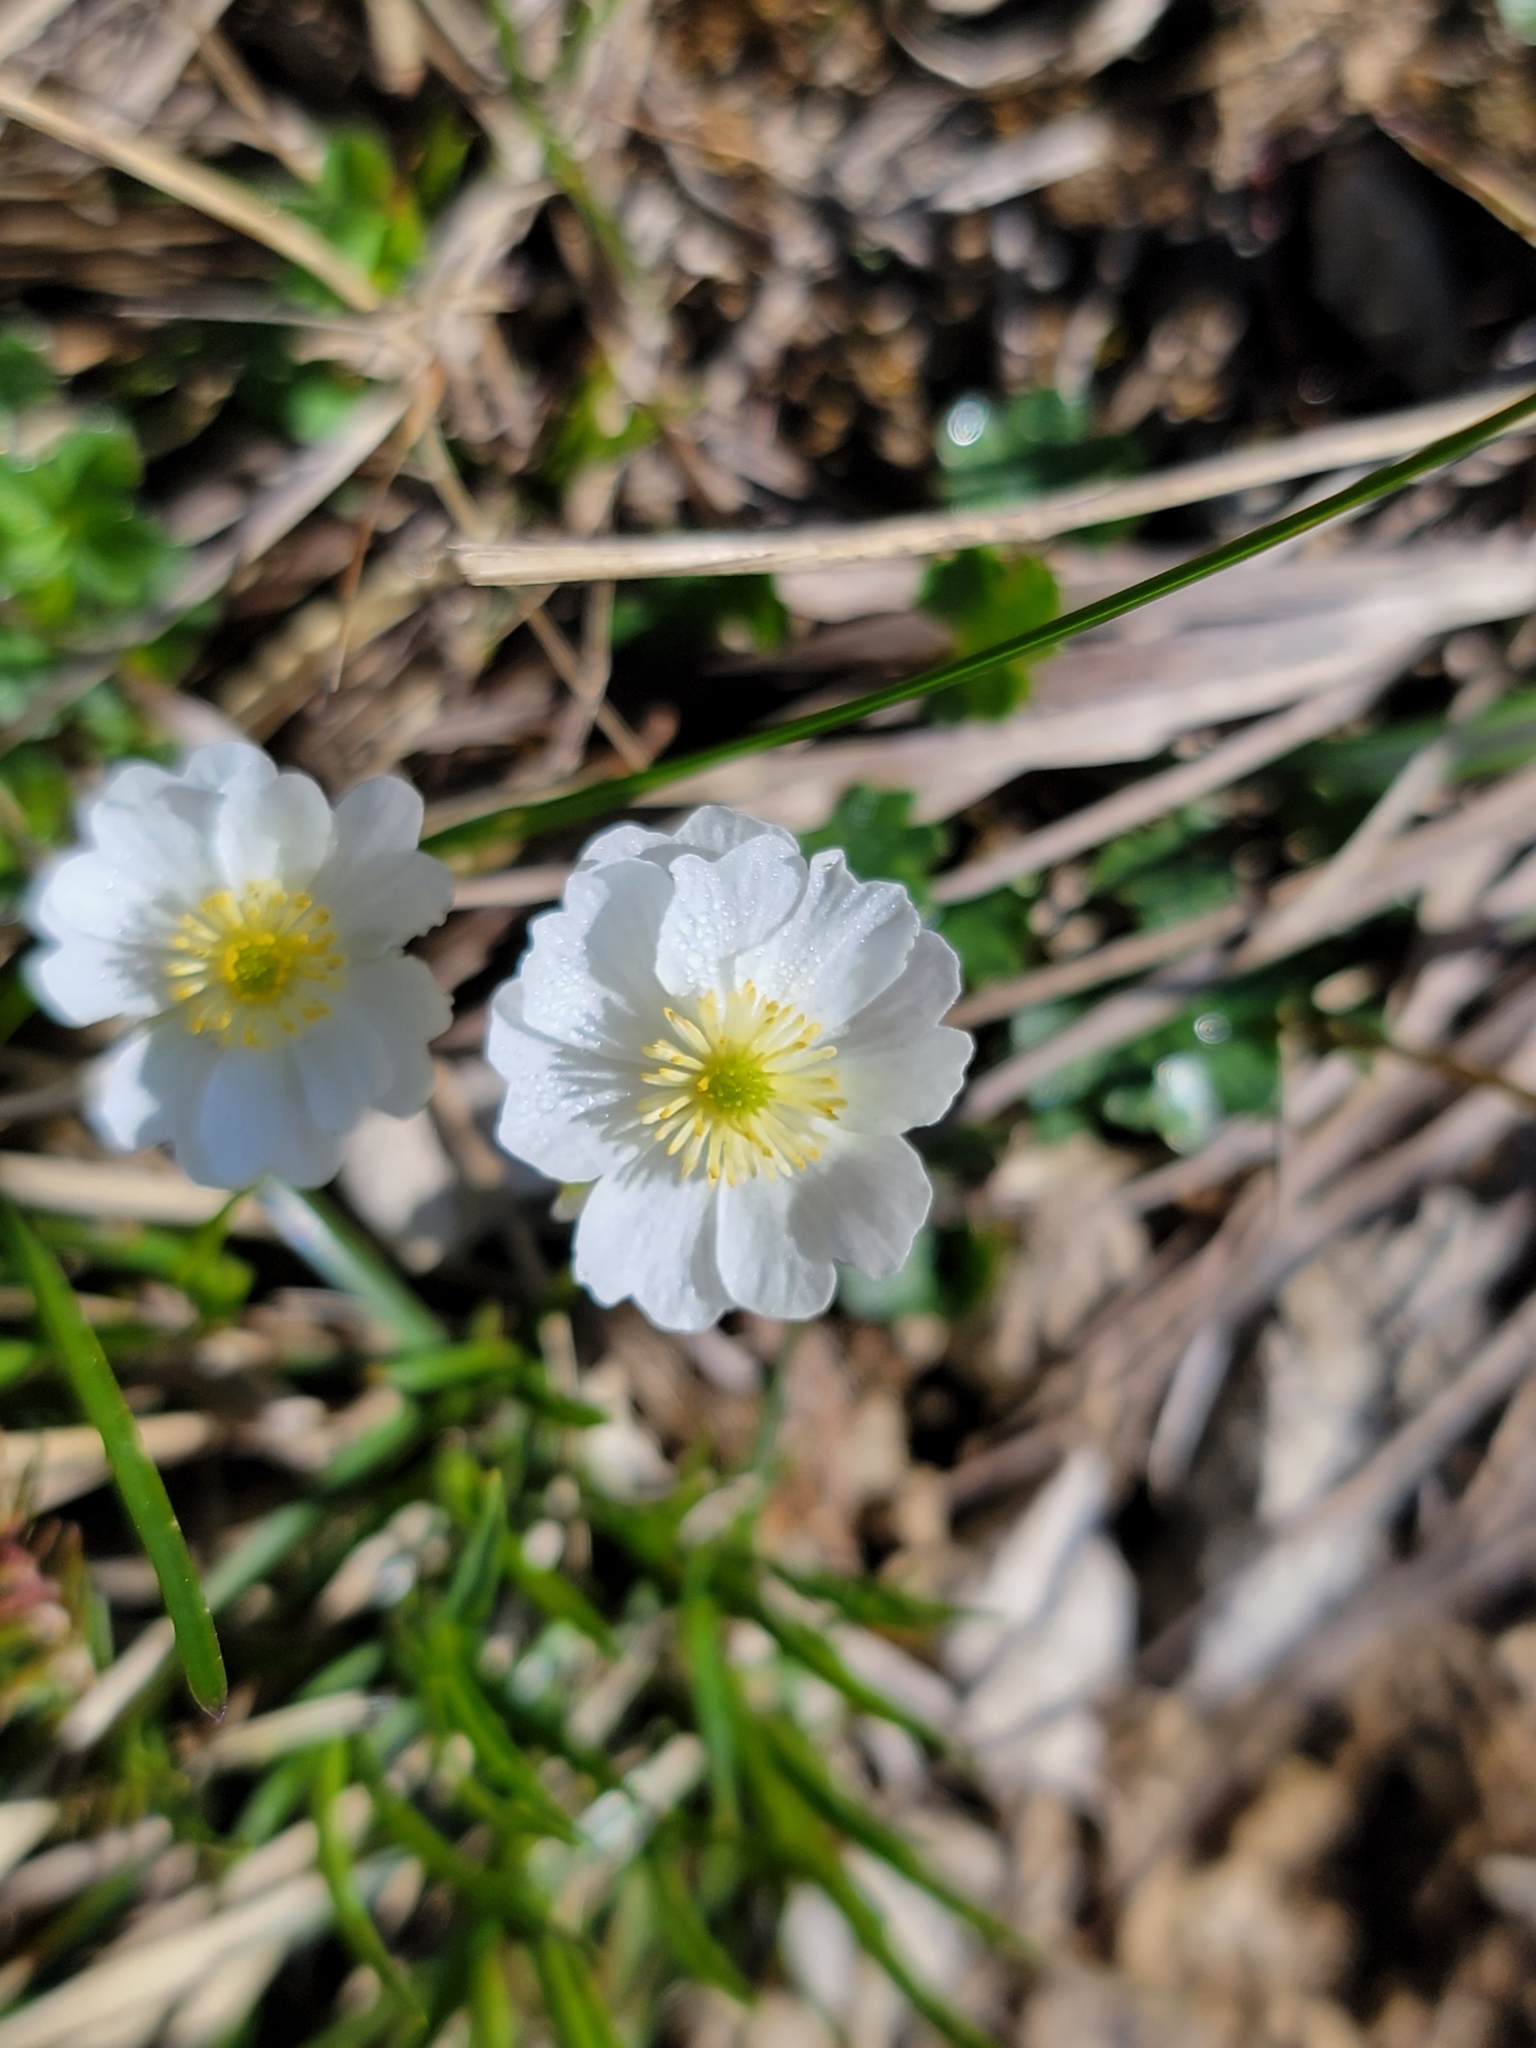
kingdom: Plantae
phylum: Tracheophyta
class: Magnoliopsida
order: Ranunculales
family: Ranunculaceae
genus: Ranunculus
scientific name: Ranunculus alpestris
